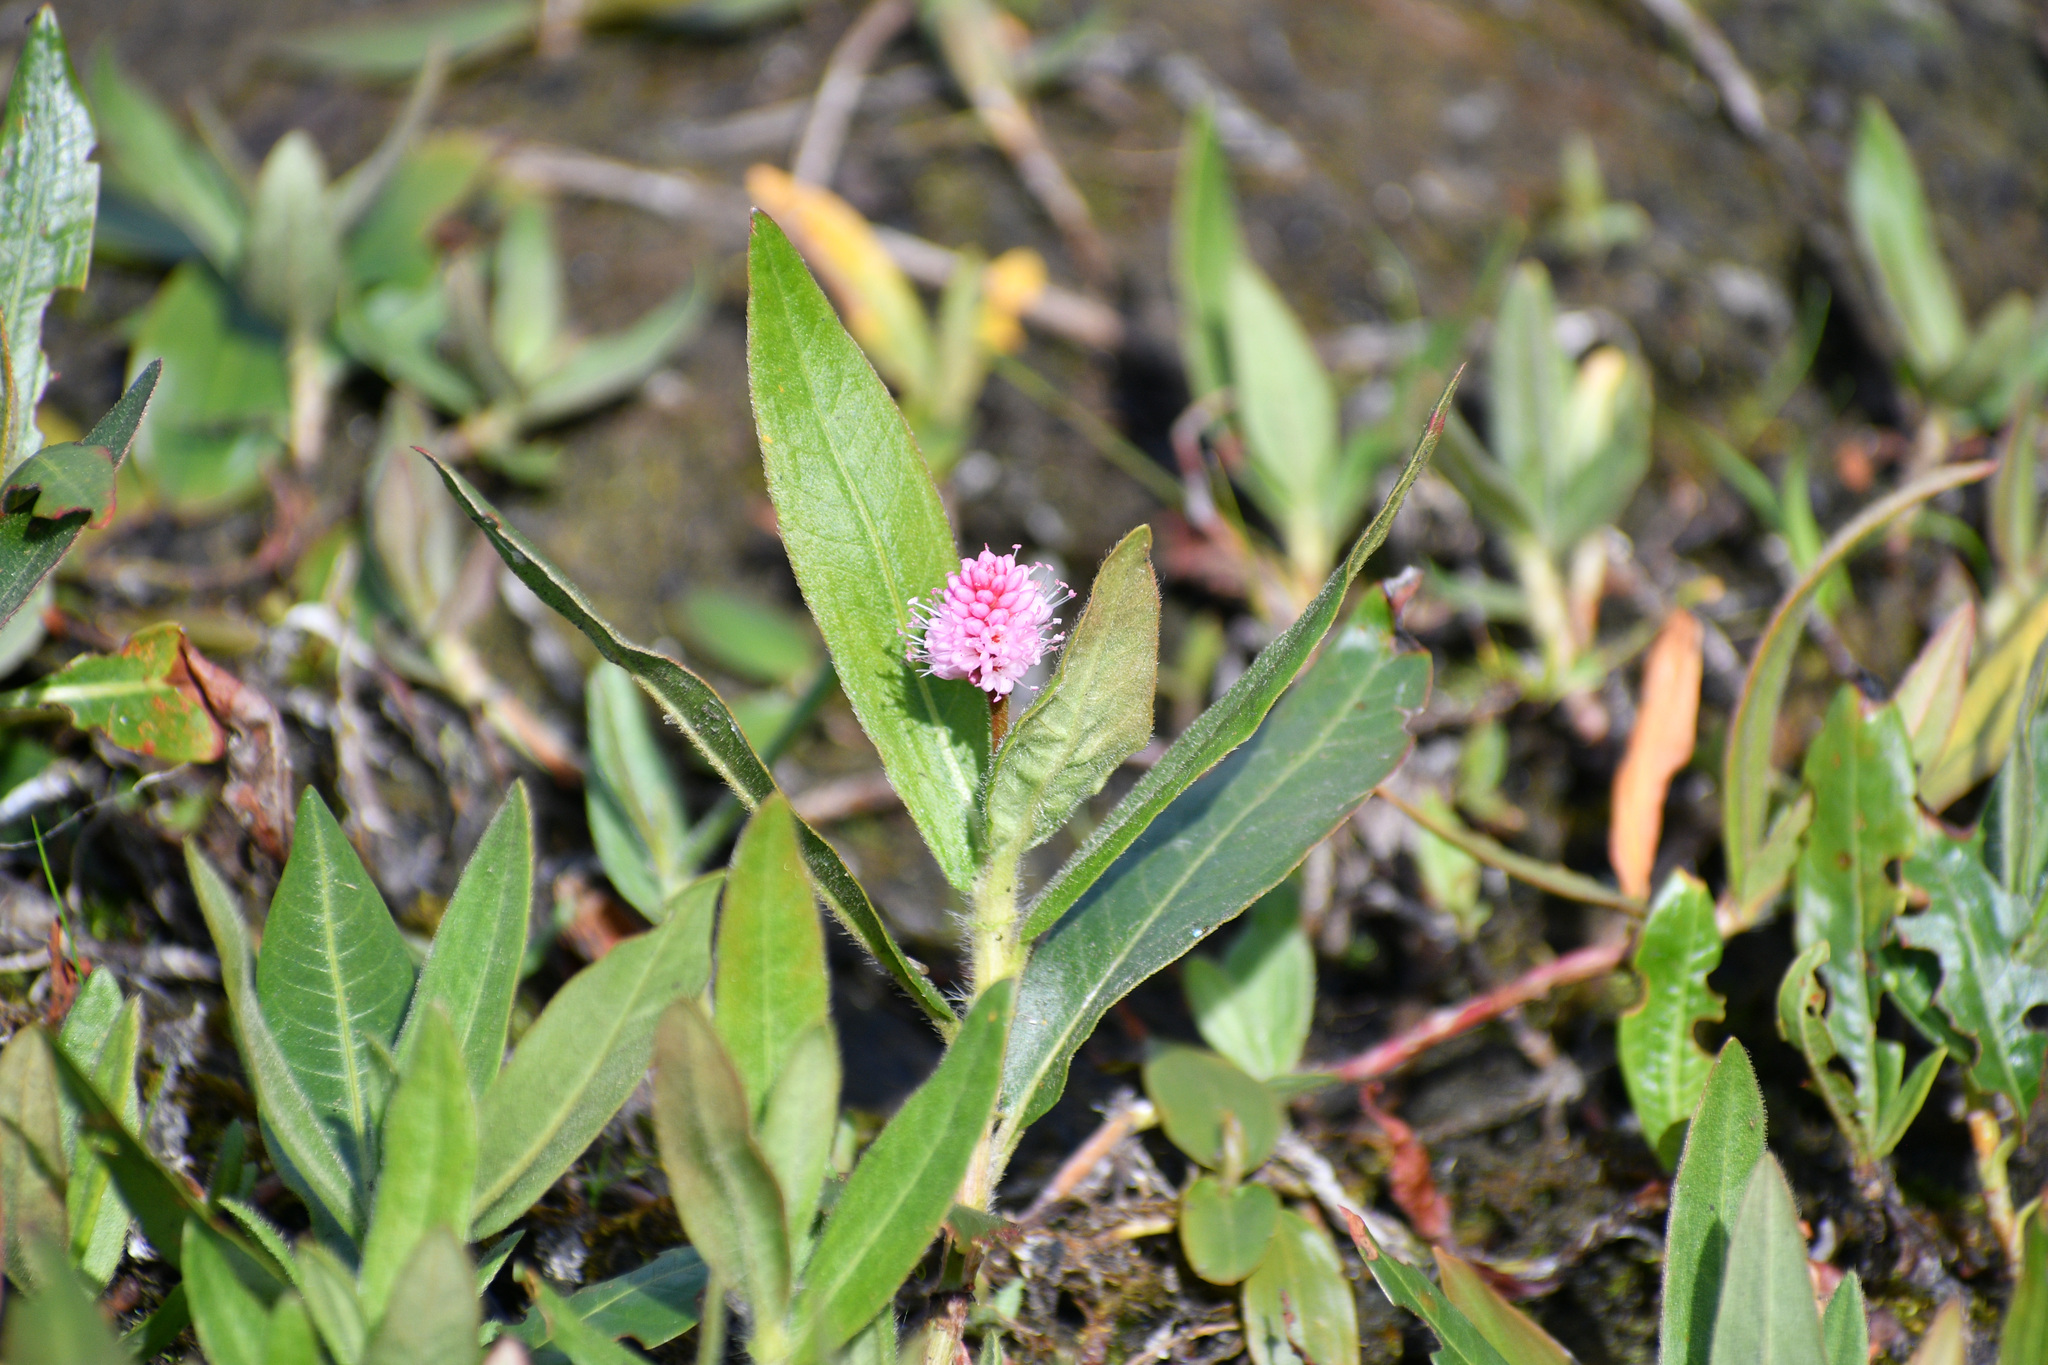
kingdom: Plantae
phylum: Tracheophyta
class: Magnoliopsida
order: Caryophyllales
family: Polygonaceae
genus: Persicaria
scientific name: Persicaria amphibia
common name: Amphibious bistort
